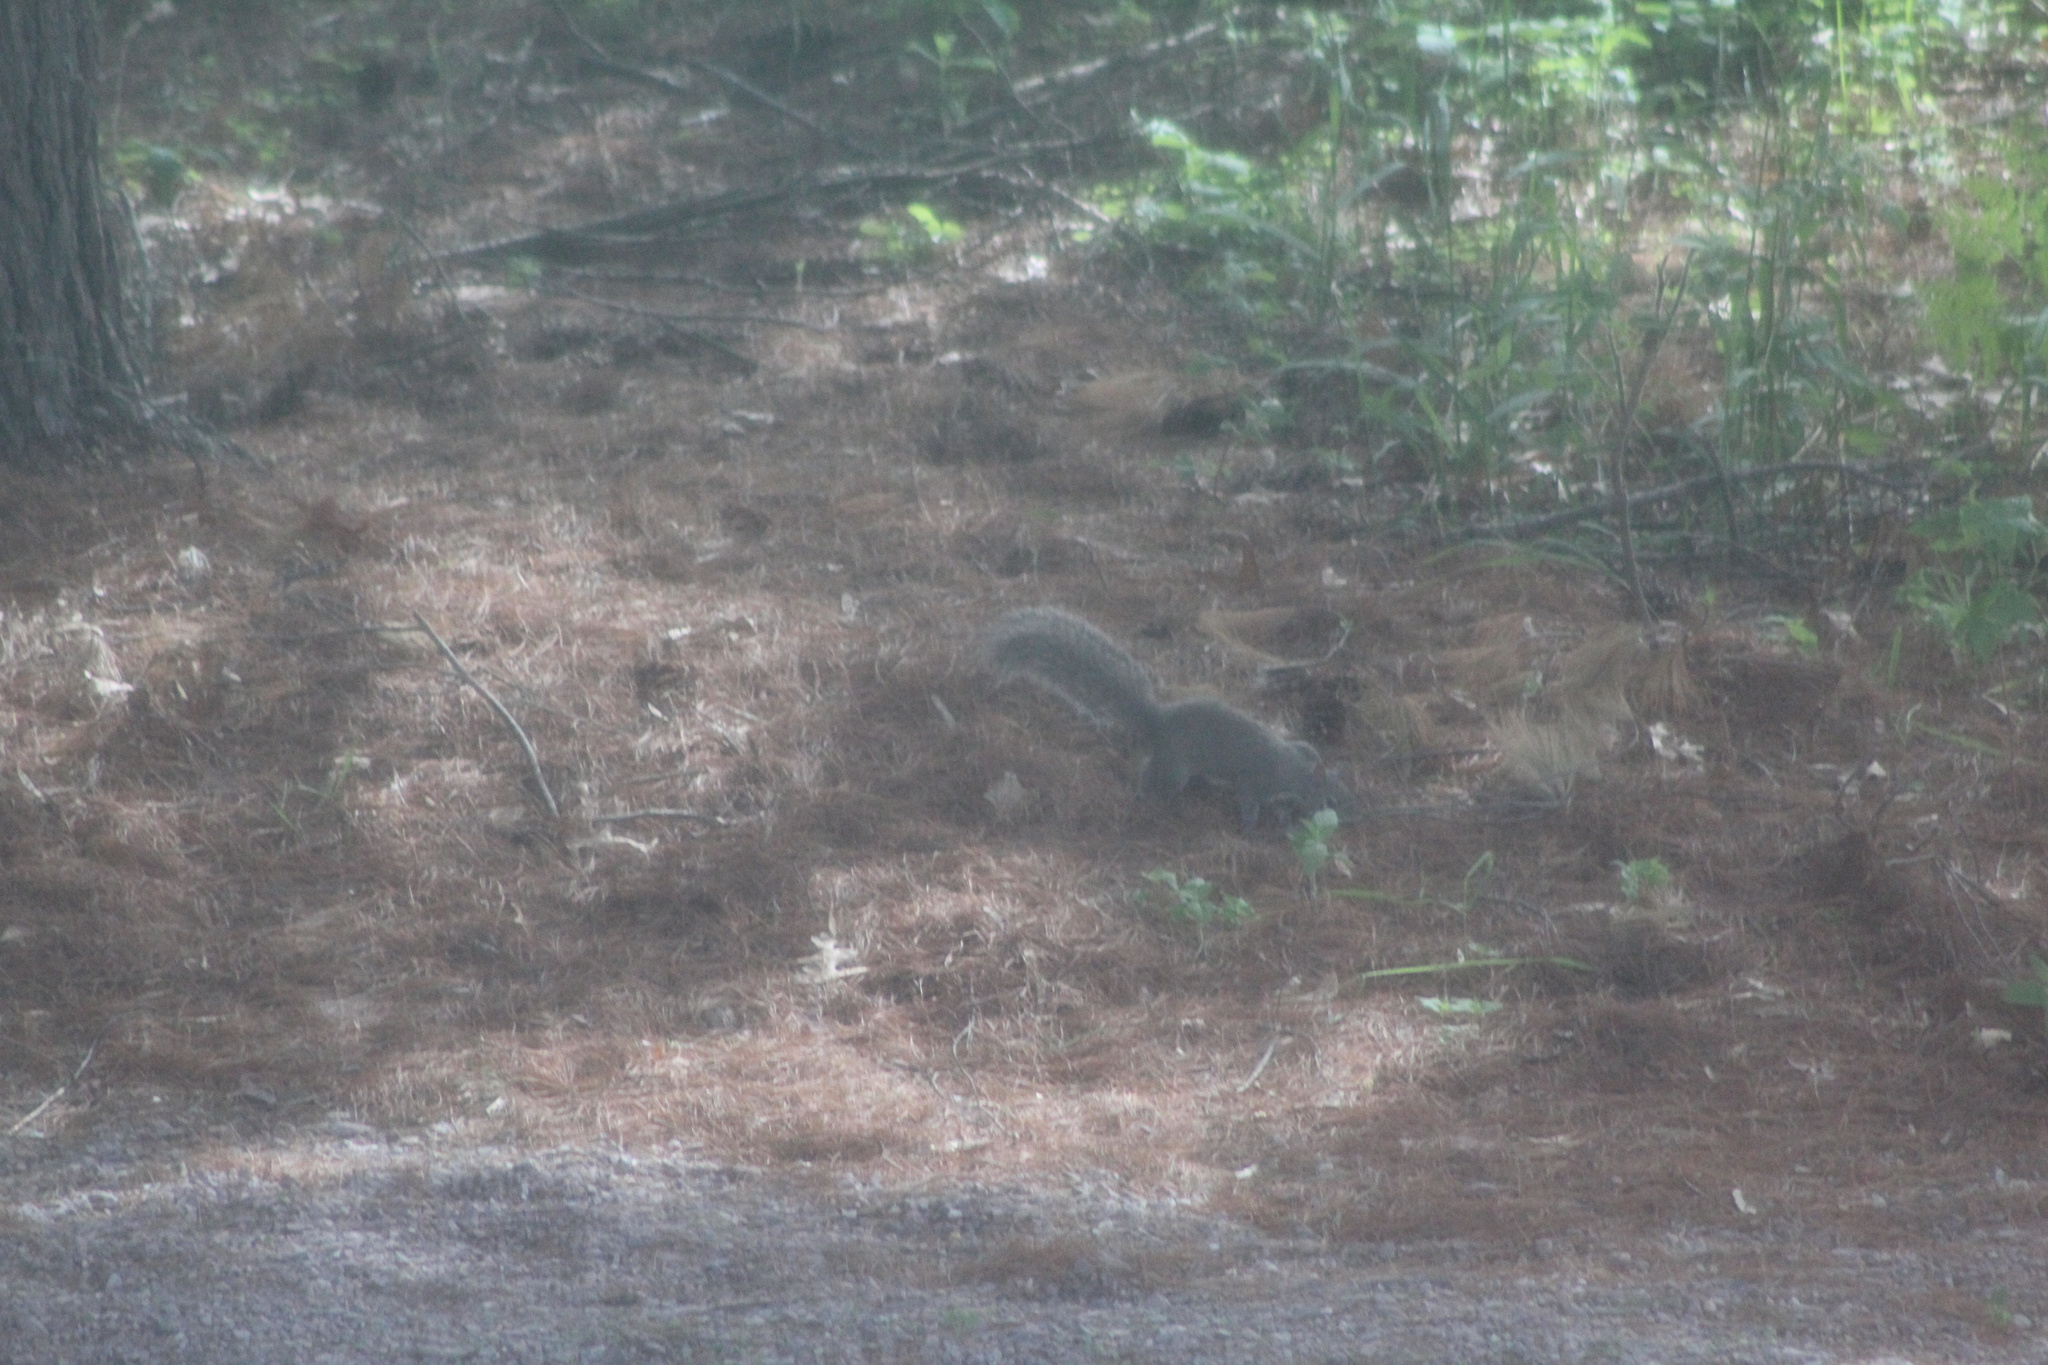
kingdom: Animalia
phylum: Chordata
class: Mammalia
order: Rodentia
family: Sciuridae
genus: Sciurus
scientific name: Sciurus carolinensis
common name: Eastern gray squirrel
